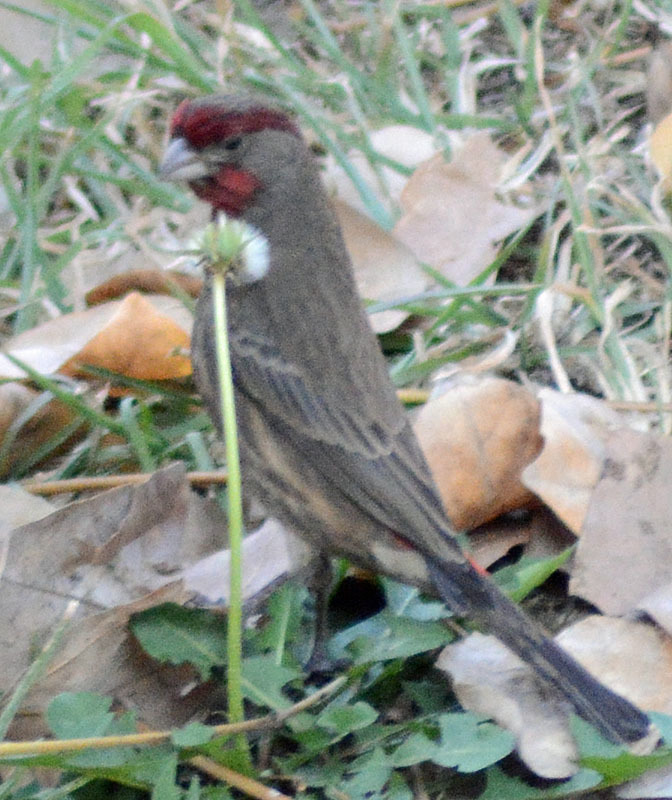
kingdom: Animalia
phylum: Chordata
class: Aves
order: Passeriformes
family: Fringillidae
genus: Haemorhous
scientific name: Haemorhous mexicanus
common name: House finch
